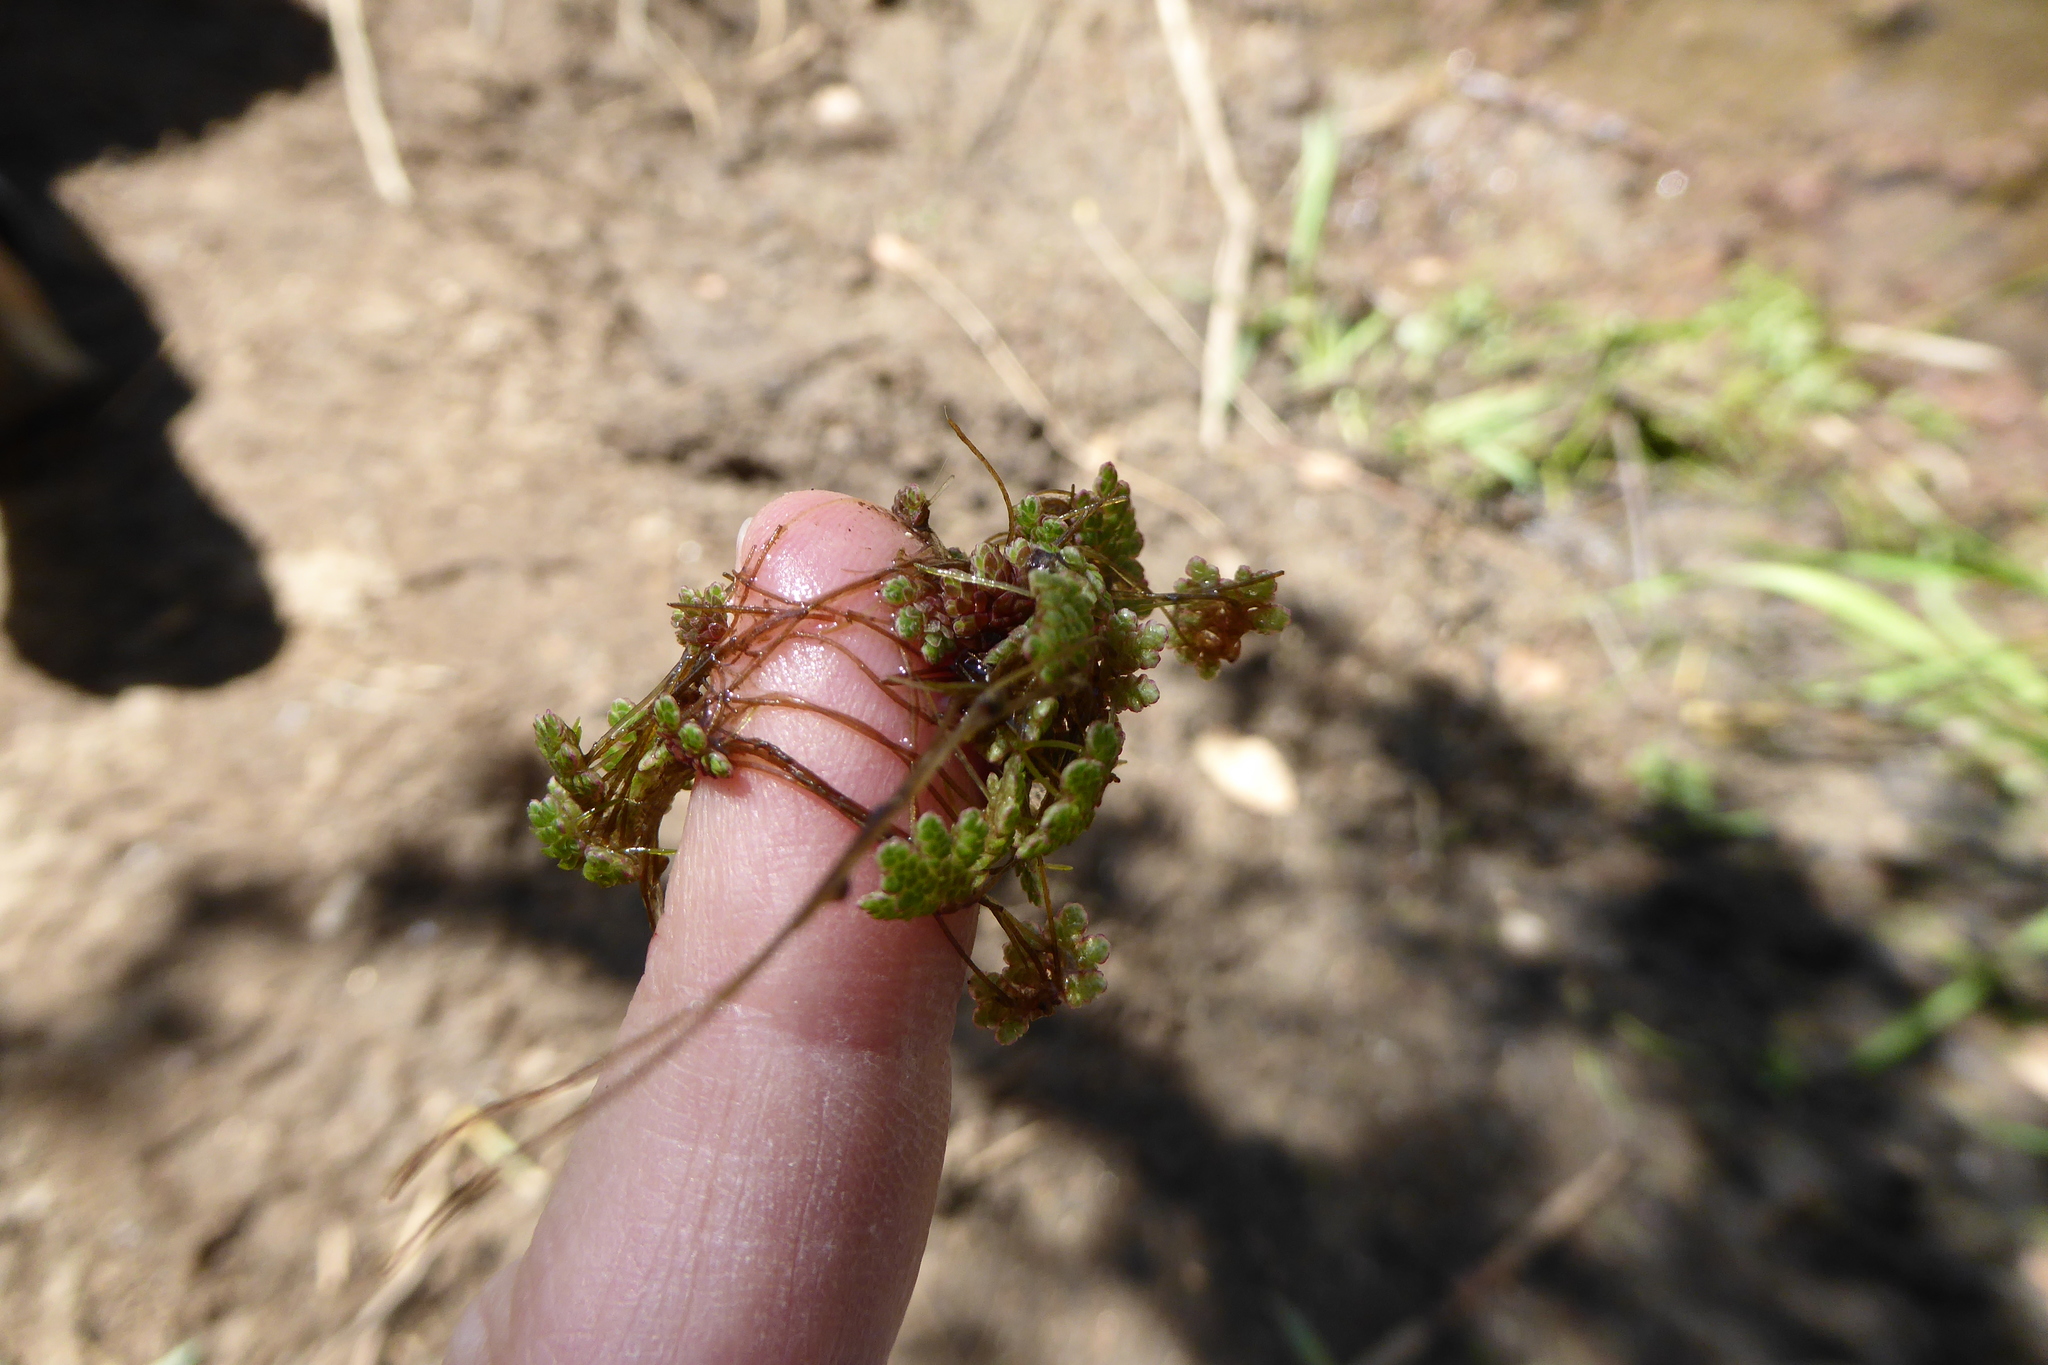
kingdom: Plantae
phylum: Tracheophyta
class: Polypodiopsida
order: Salviniales
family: Salviniaceae
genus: Azolla
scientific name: Azolla filiculoides
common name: Water fern
